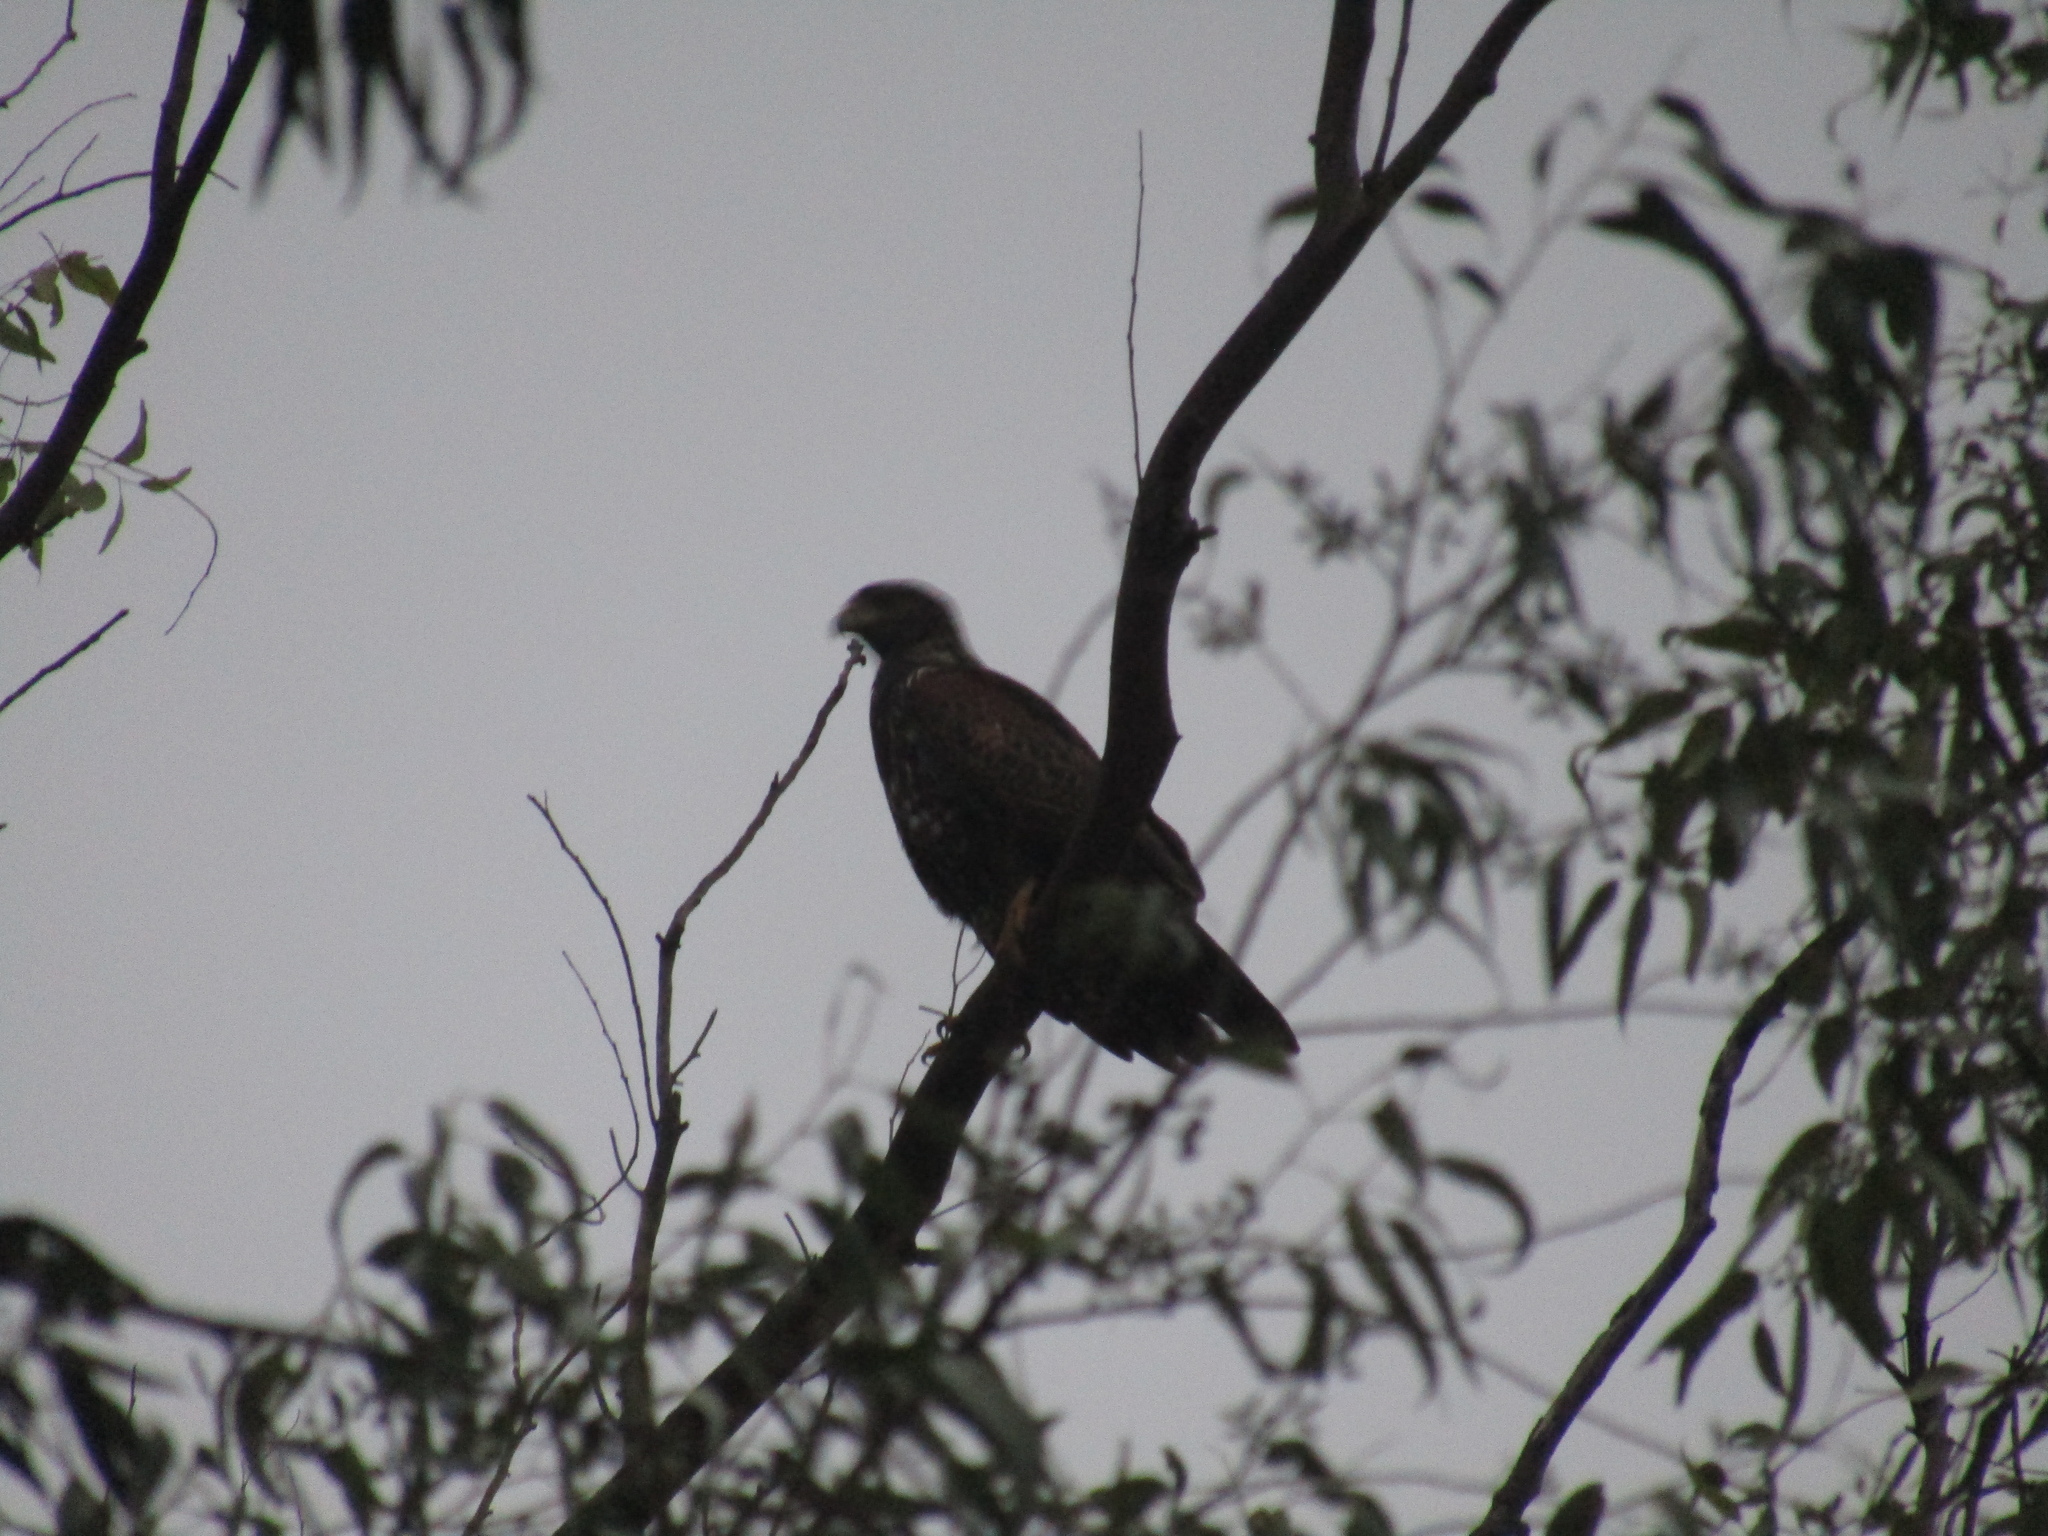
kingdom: Animalia
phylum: Chordata
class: Aves
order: Accipitriformes
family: Accipitridae
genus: Parabuteo
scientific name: Parabuteo unicinctus
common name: Harris's hawk
